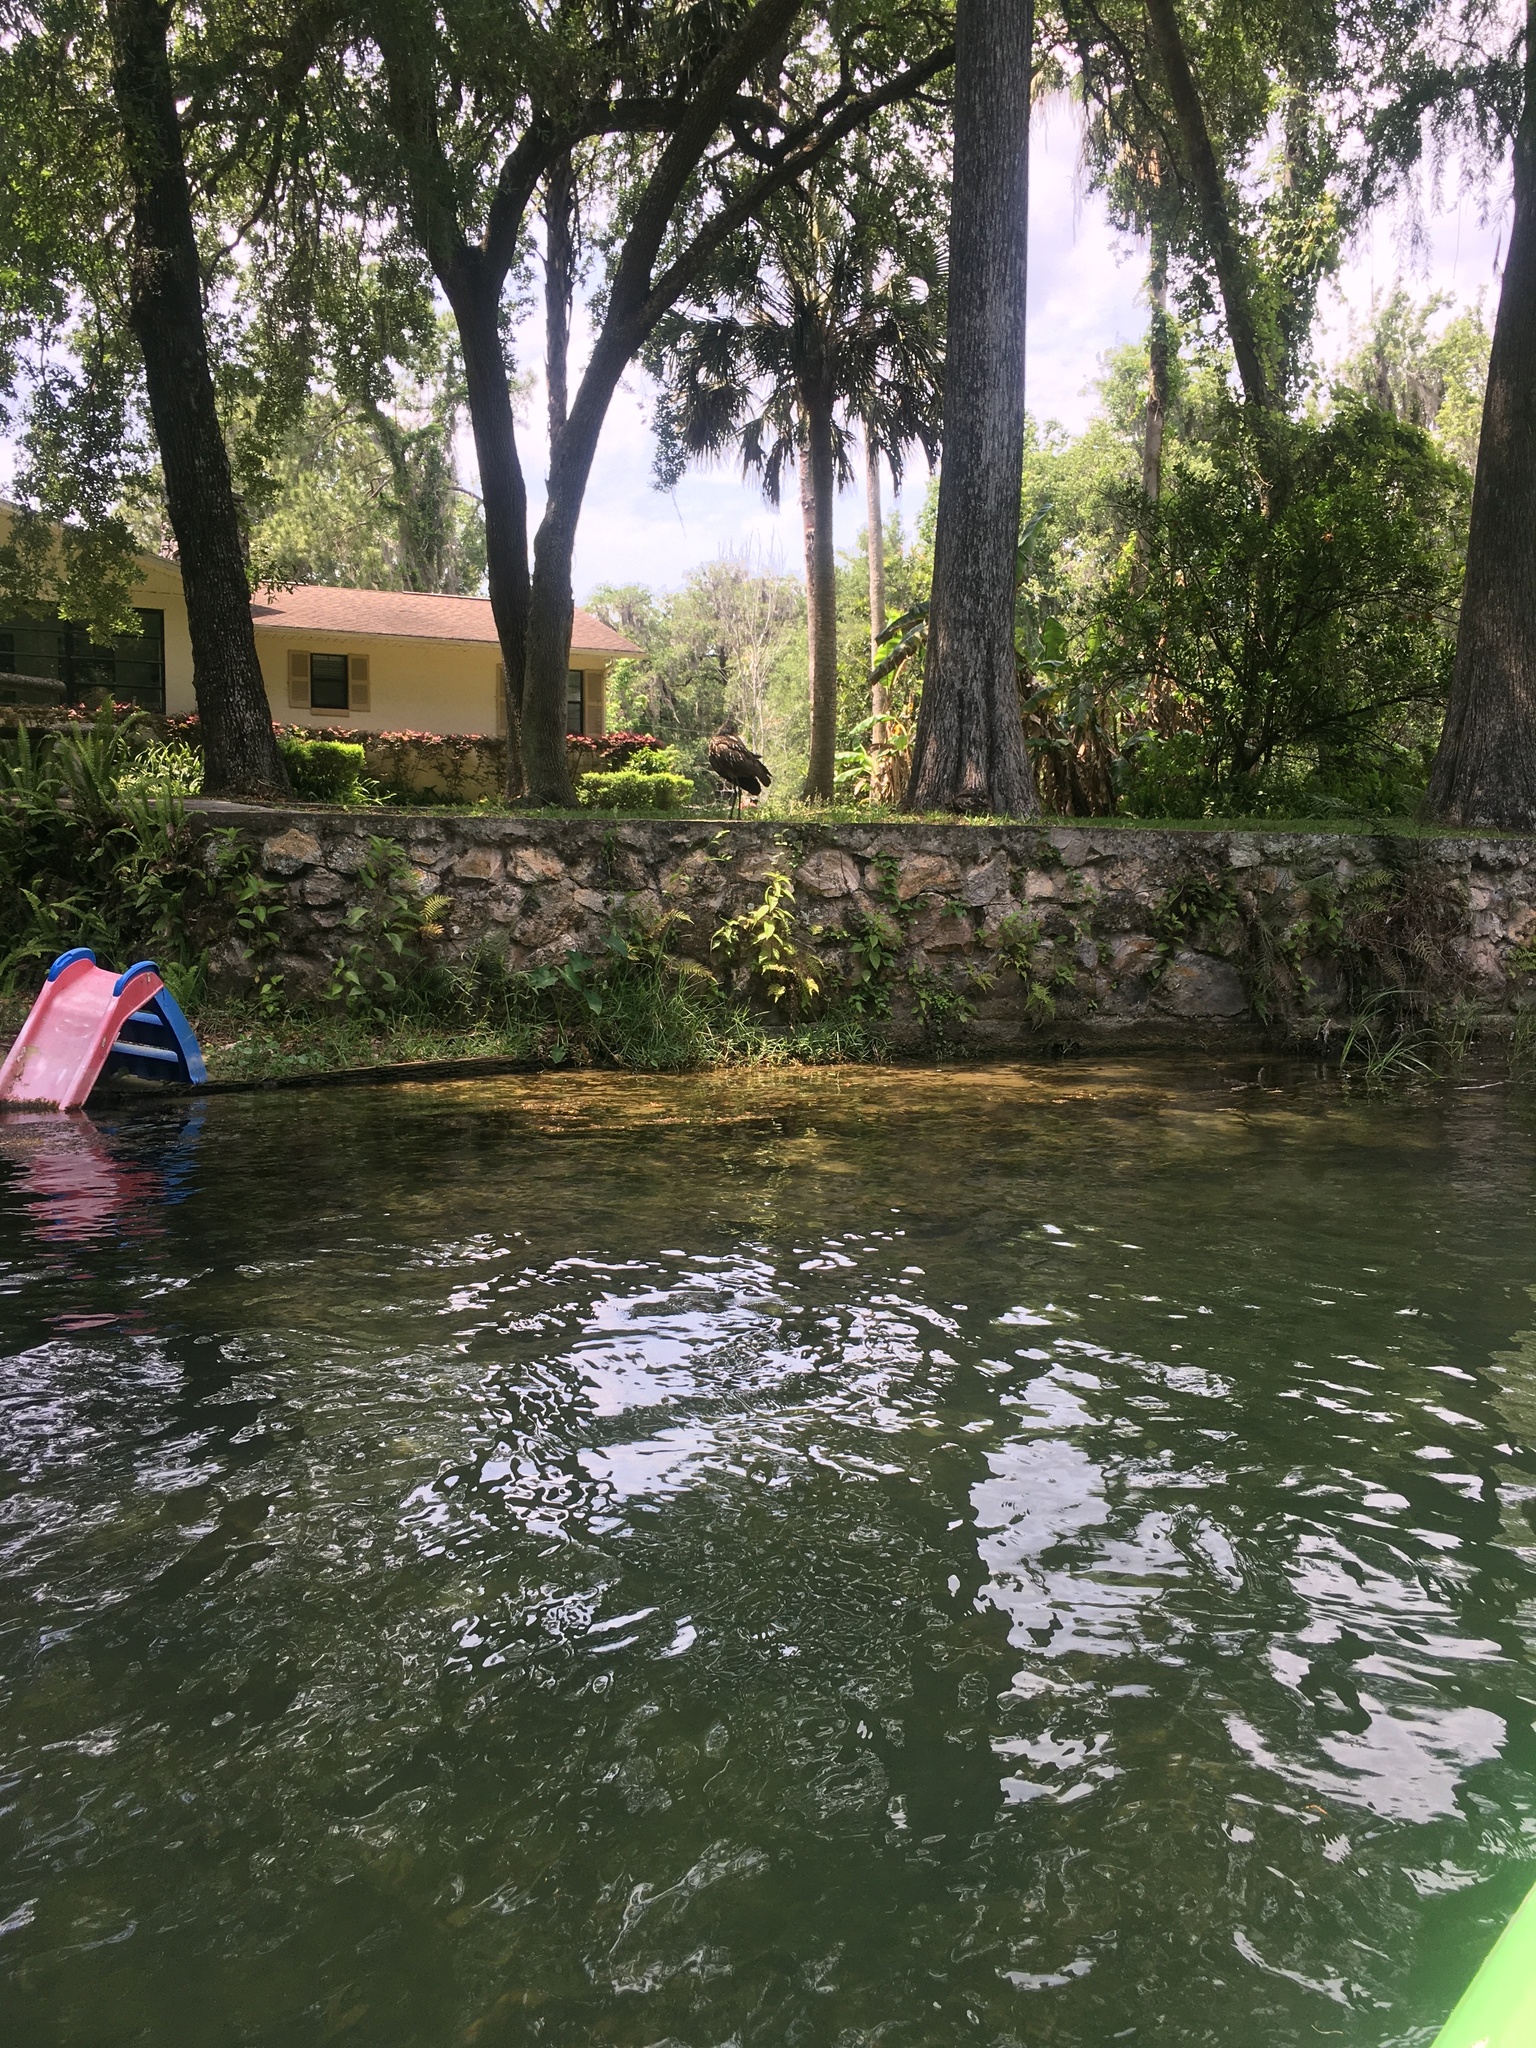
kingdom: Animalia
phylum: Chordata
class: Aves
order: Gruiformes
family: Aramidae
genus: Aramus
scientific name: Aramus guarauna
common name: Limpkin
